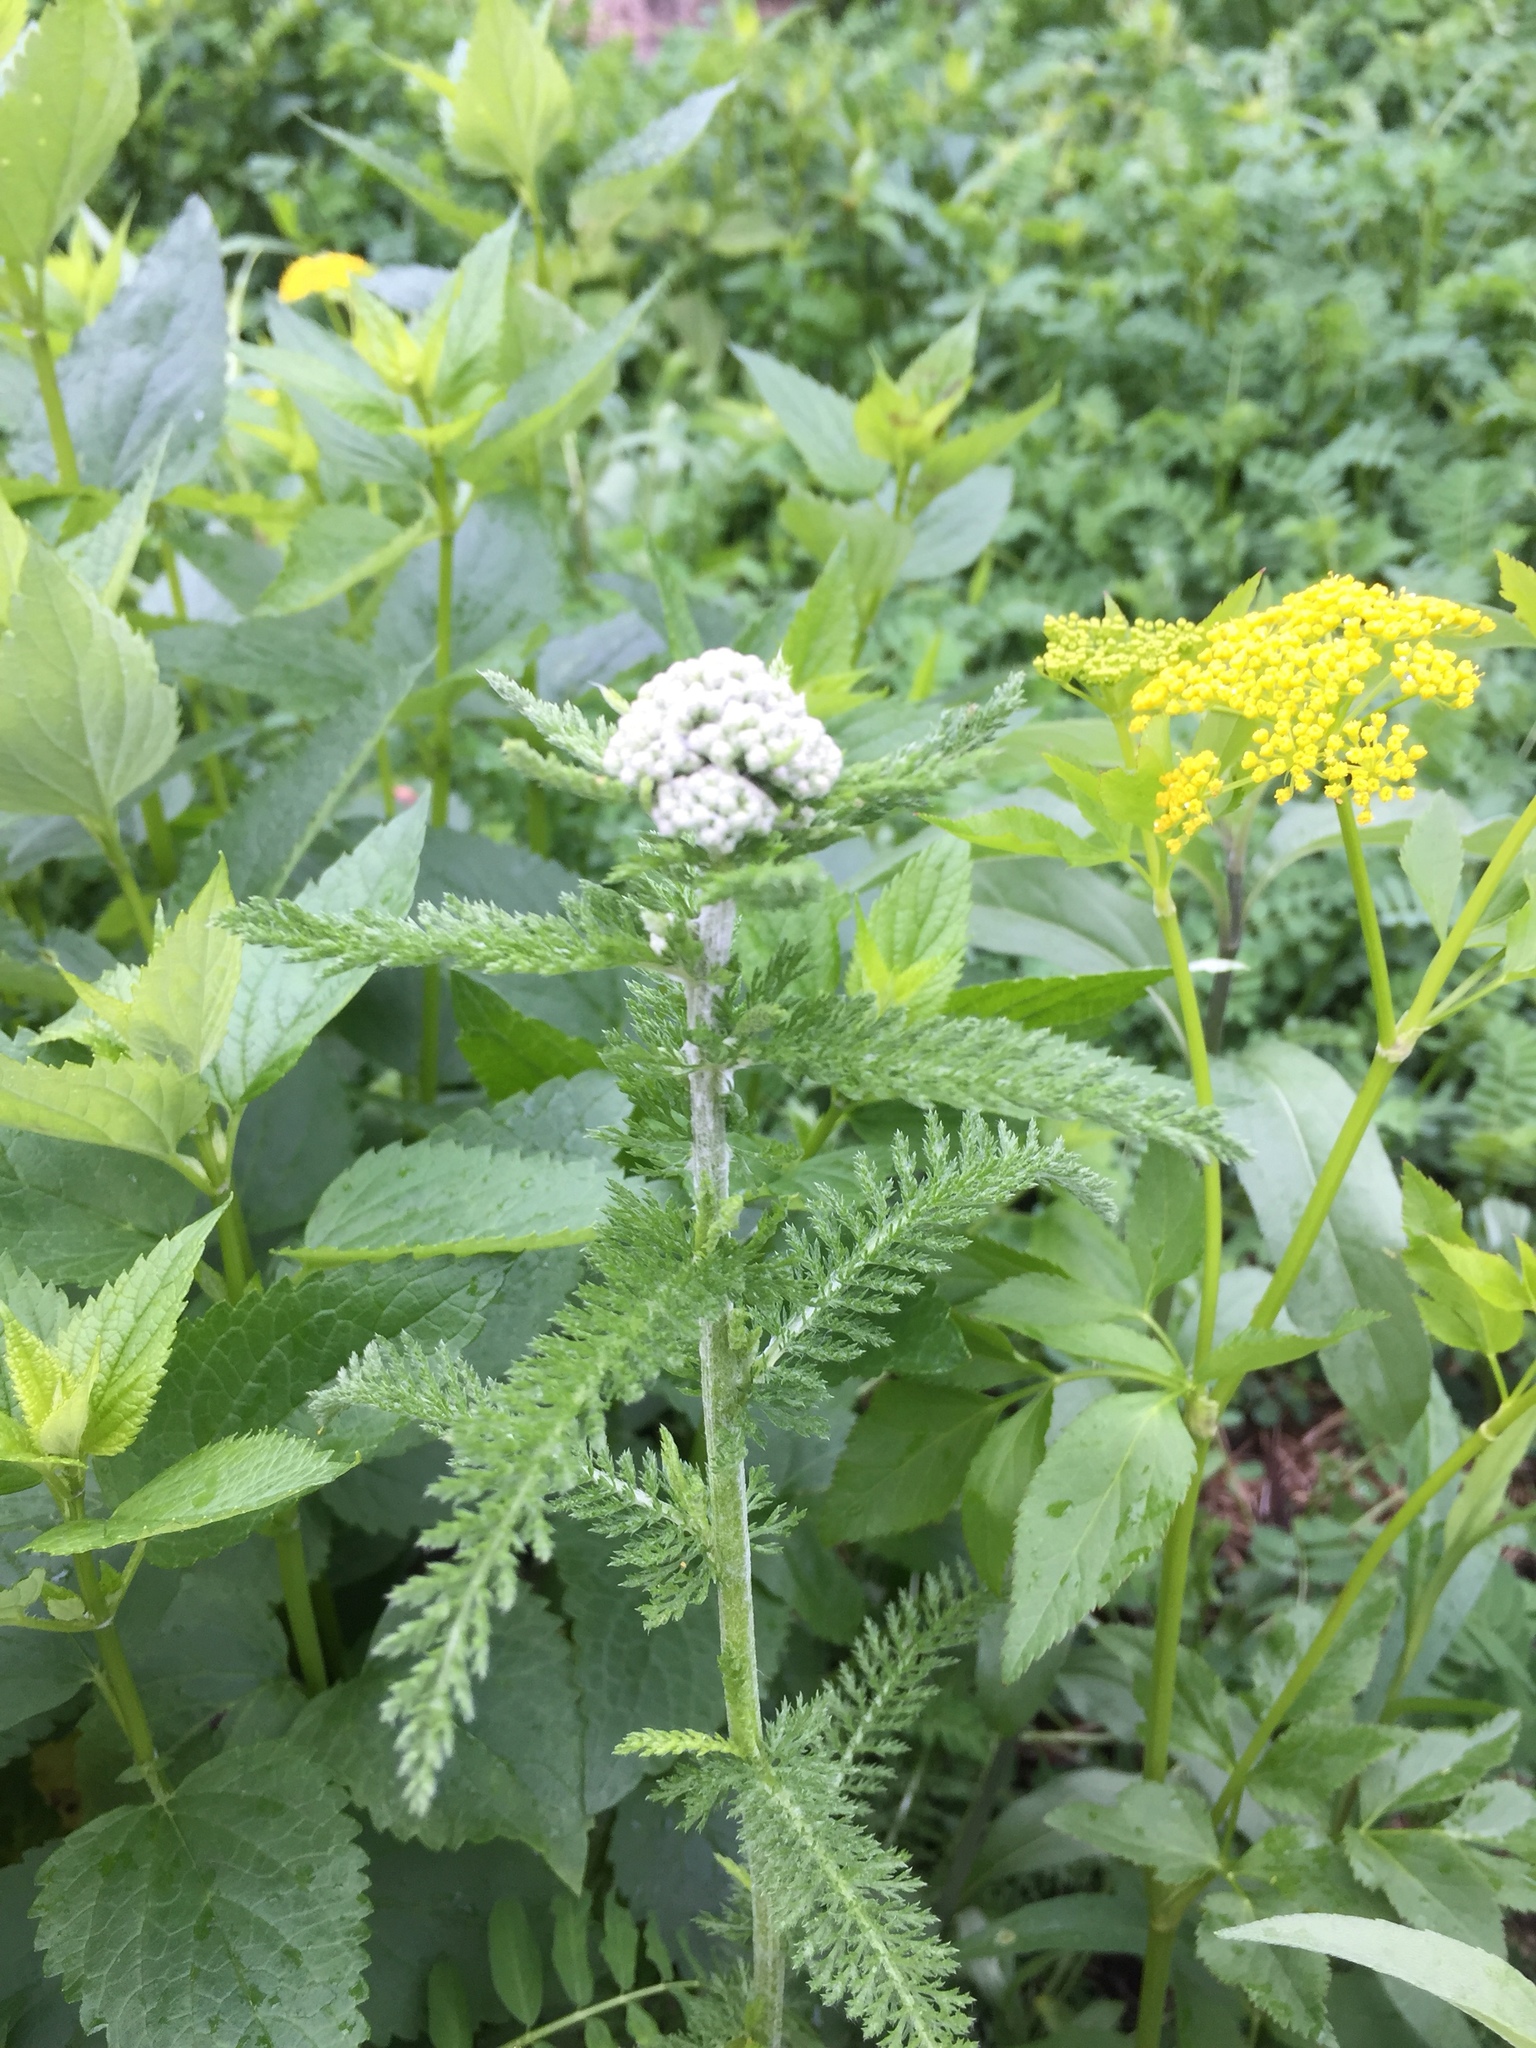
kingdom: Plantae
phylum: Tracheophyta
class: Magnoliopsida
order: Asterales
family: Asteraceae
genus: Achillea
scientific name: Achillea millefolium
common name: Yarrow
